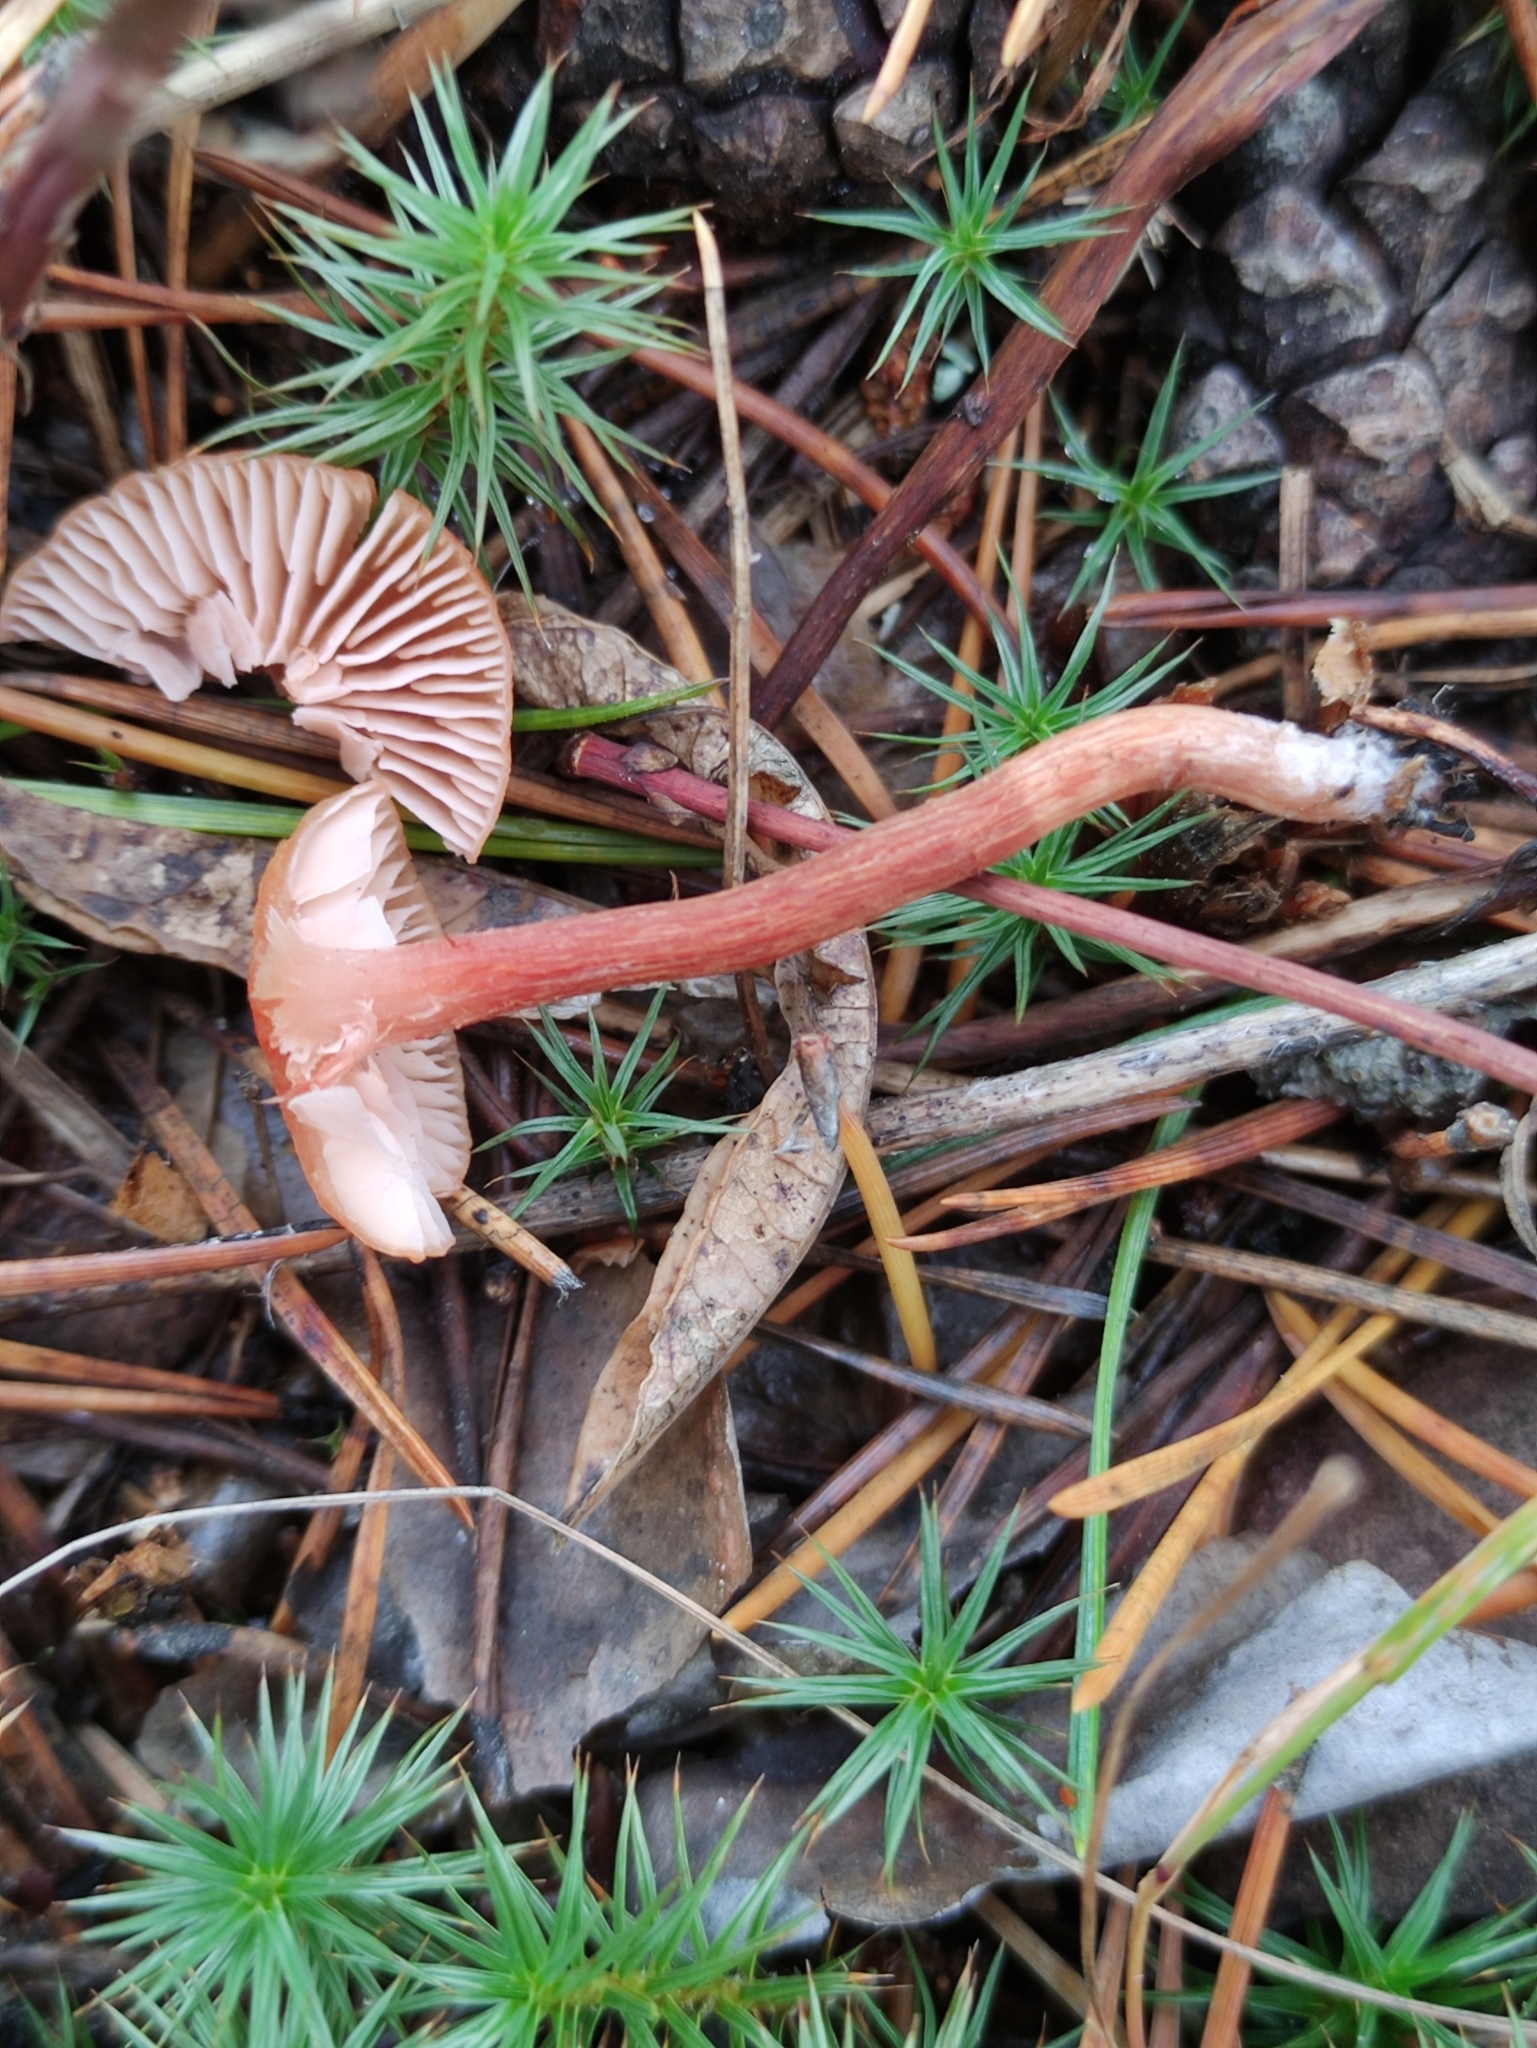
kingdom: Fungi
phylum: Basidiomycota
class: Agaricomycetes
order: Agaricales
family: Hydnangiaceae
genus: Laccaria
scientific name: Laccaria proxima
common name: Scurfy deceiver
